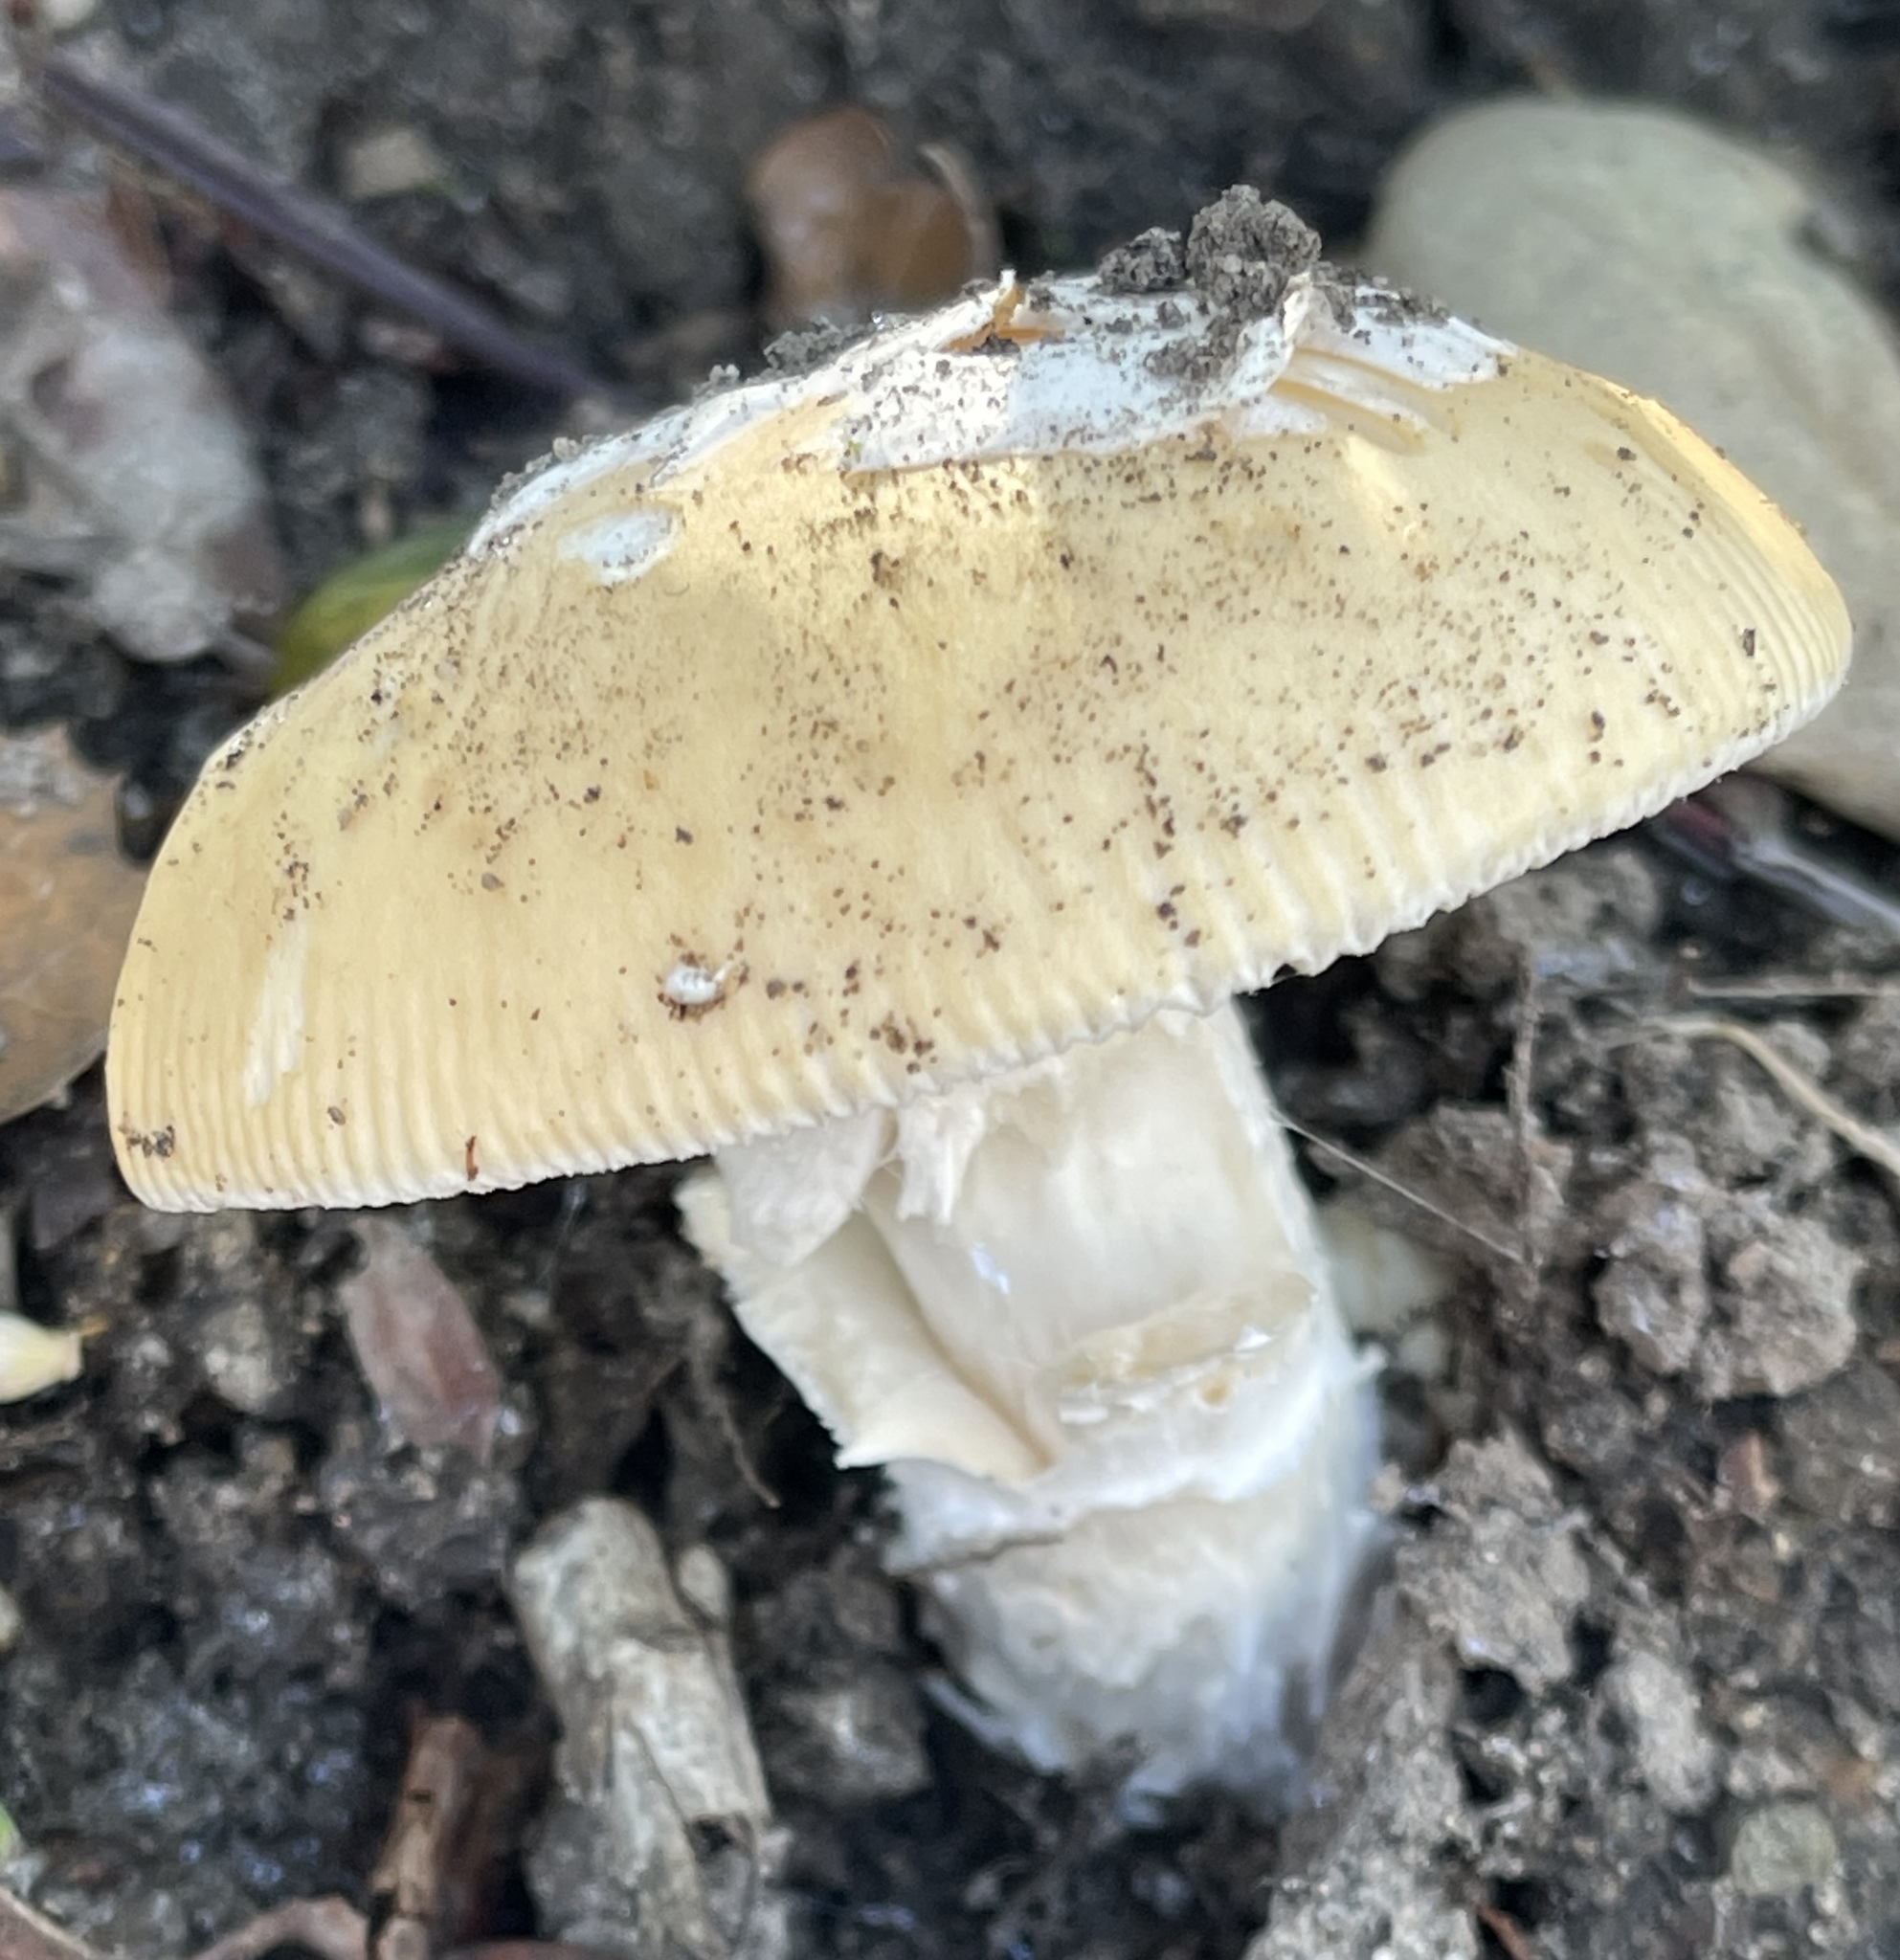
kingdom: Fungi
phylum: Basidiomycota
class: Agaricomycetes
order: Agaricales
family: Amanitaceae
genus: Amanita
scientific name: Amanita velosa
